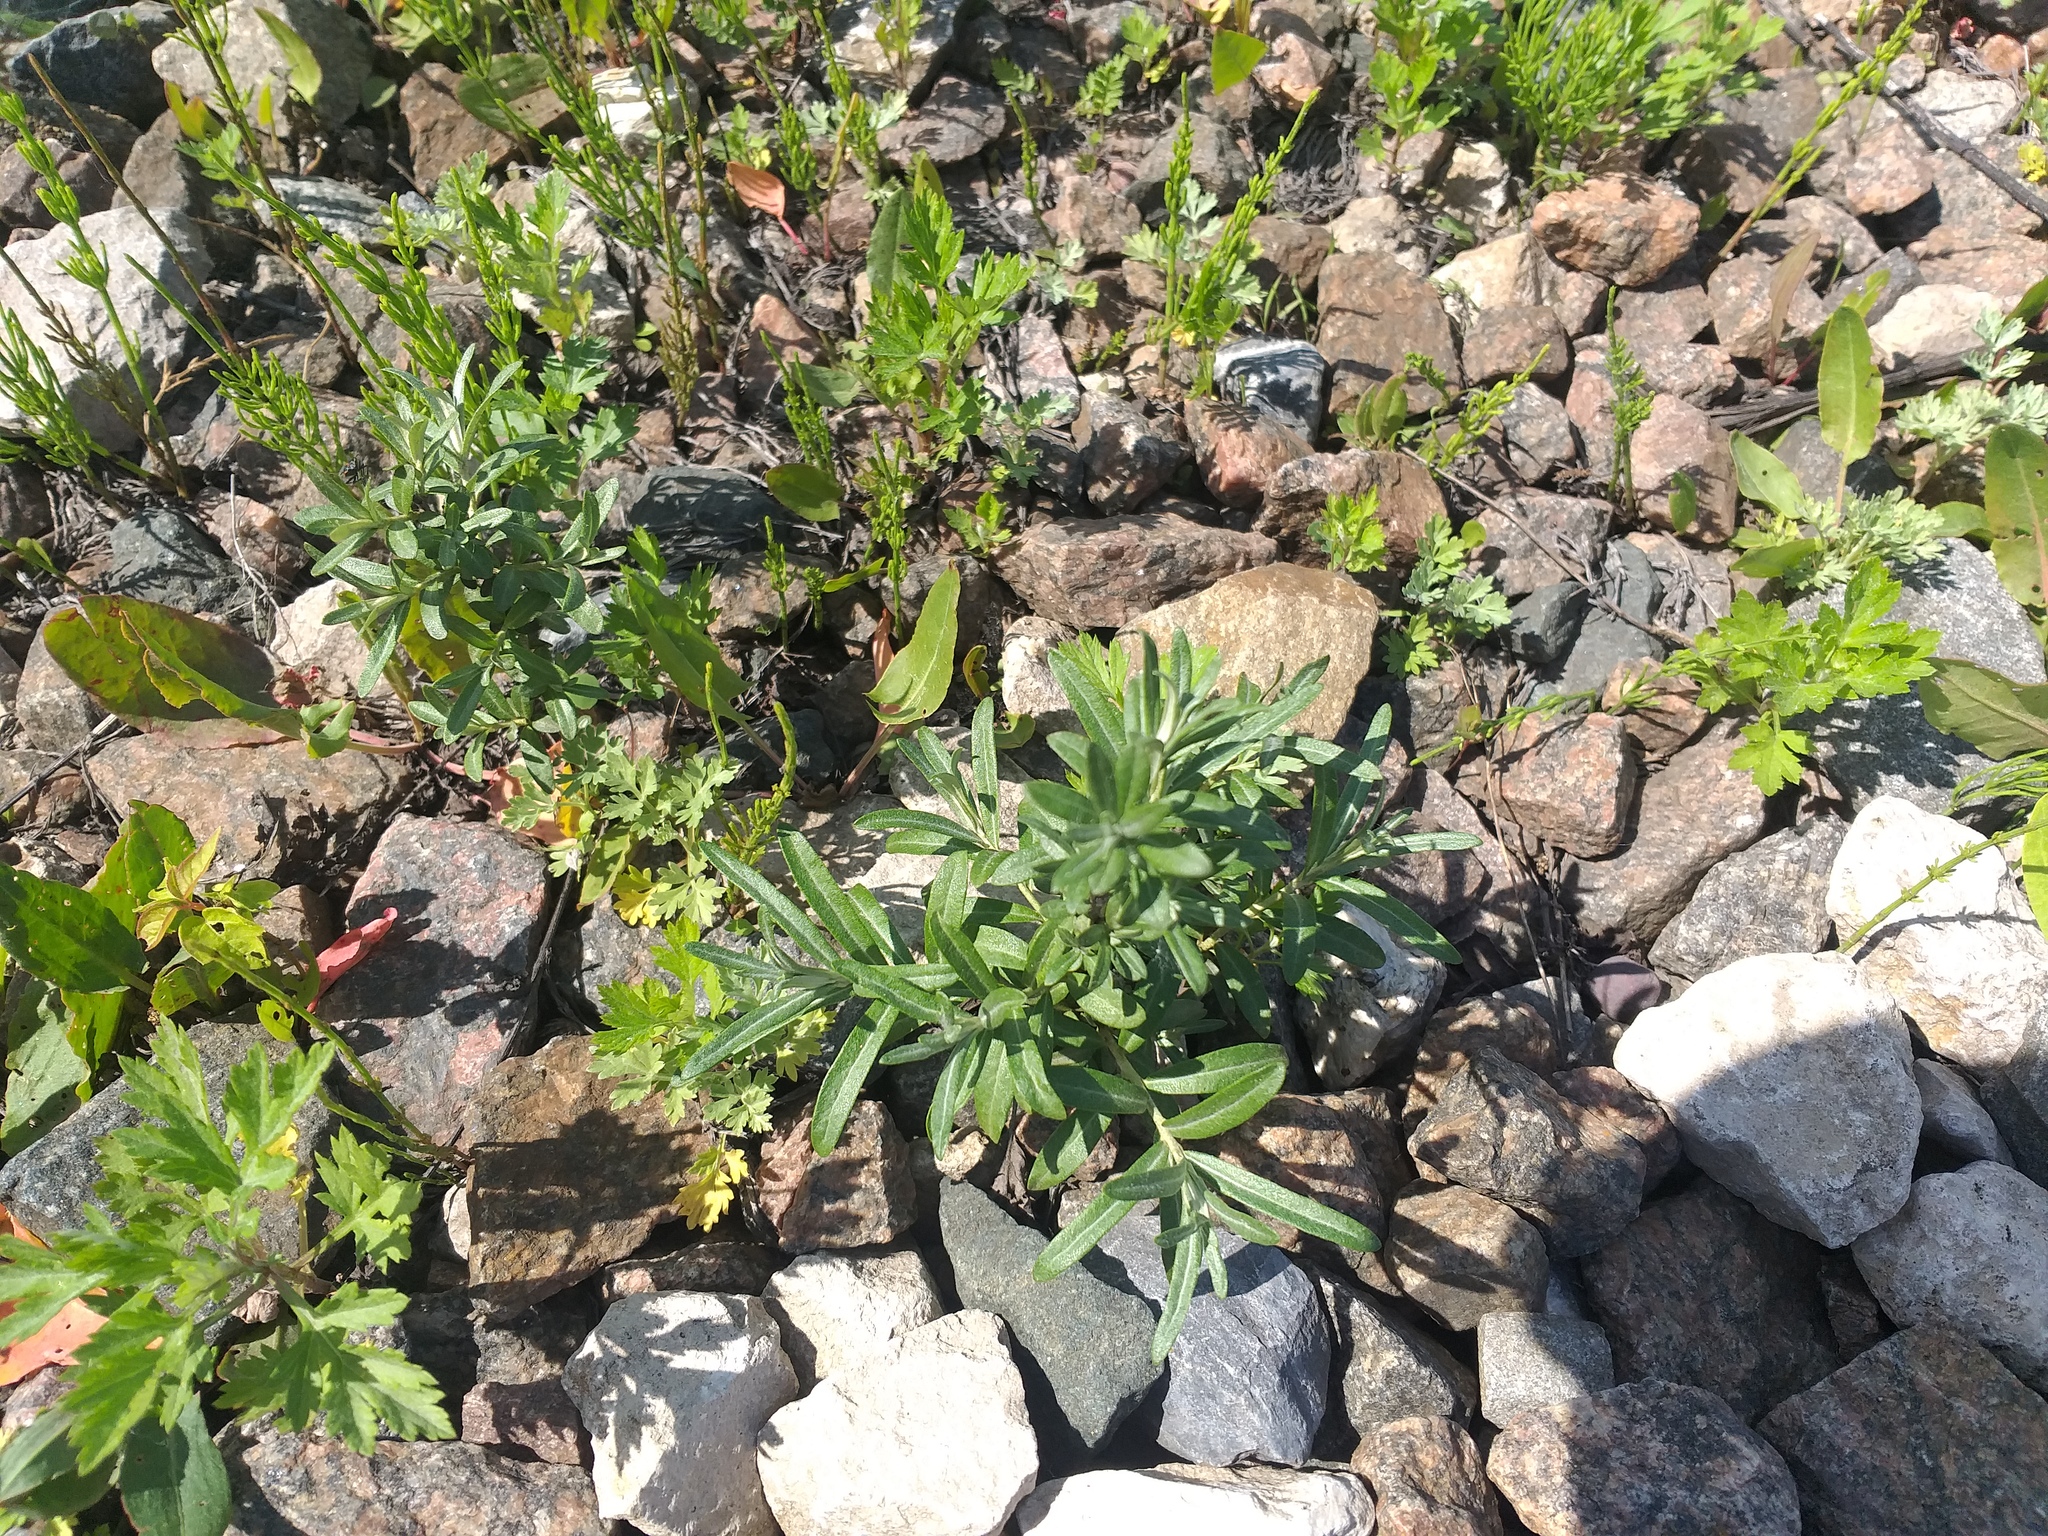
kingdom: Plantae
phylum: Tracheophyta
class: Magnoliopsida
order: Rosales
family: Elaeagnaceae
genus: Hippophae
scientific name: Hippophae rhamnoides
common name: Sea-buckthorn
